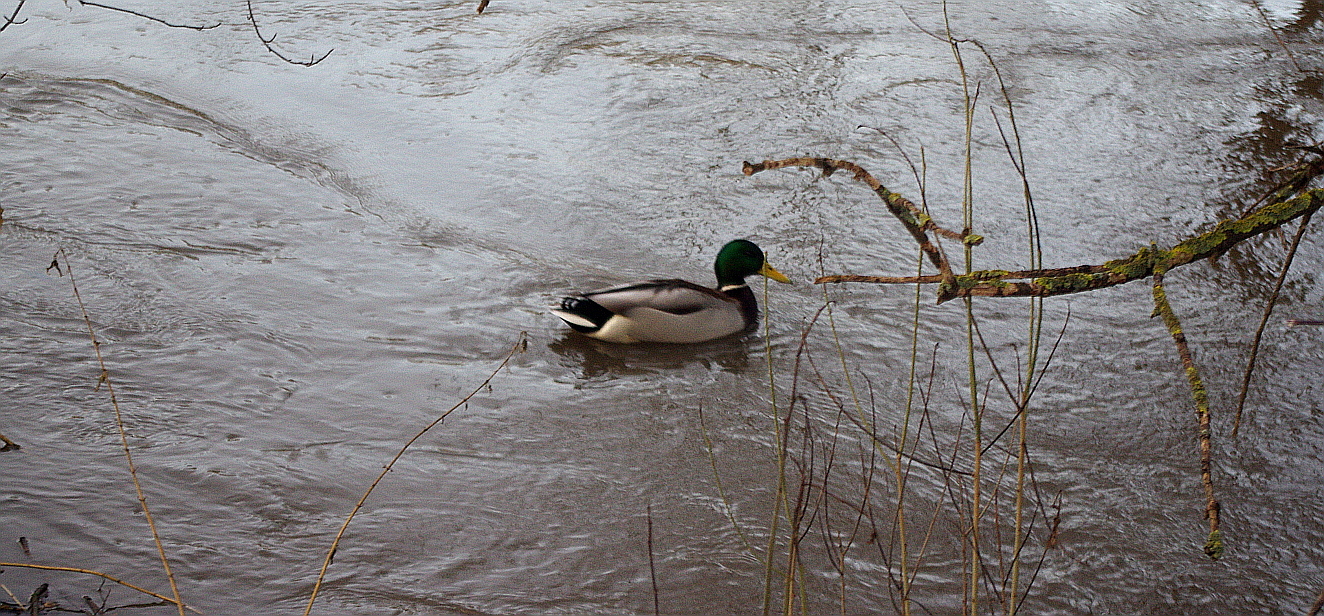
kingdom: Animalia
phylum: Chordata
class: Aves
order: Anseriformes
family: Anatidae
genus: Anas
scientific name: Anas platyrhynchos
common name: Mallard
